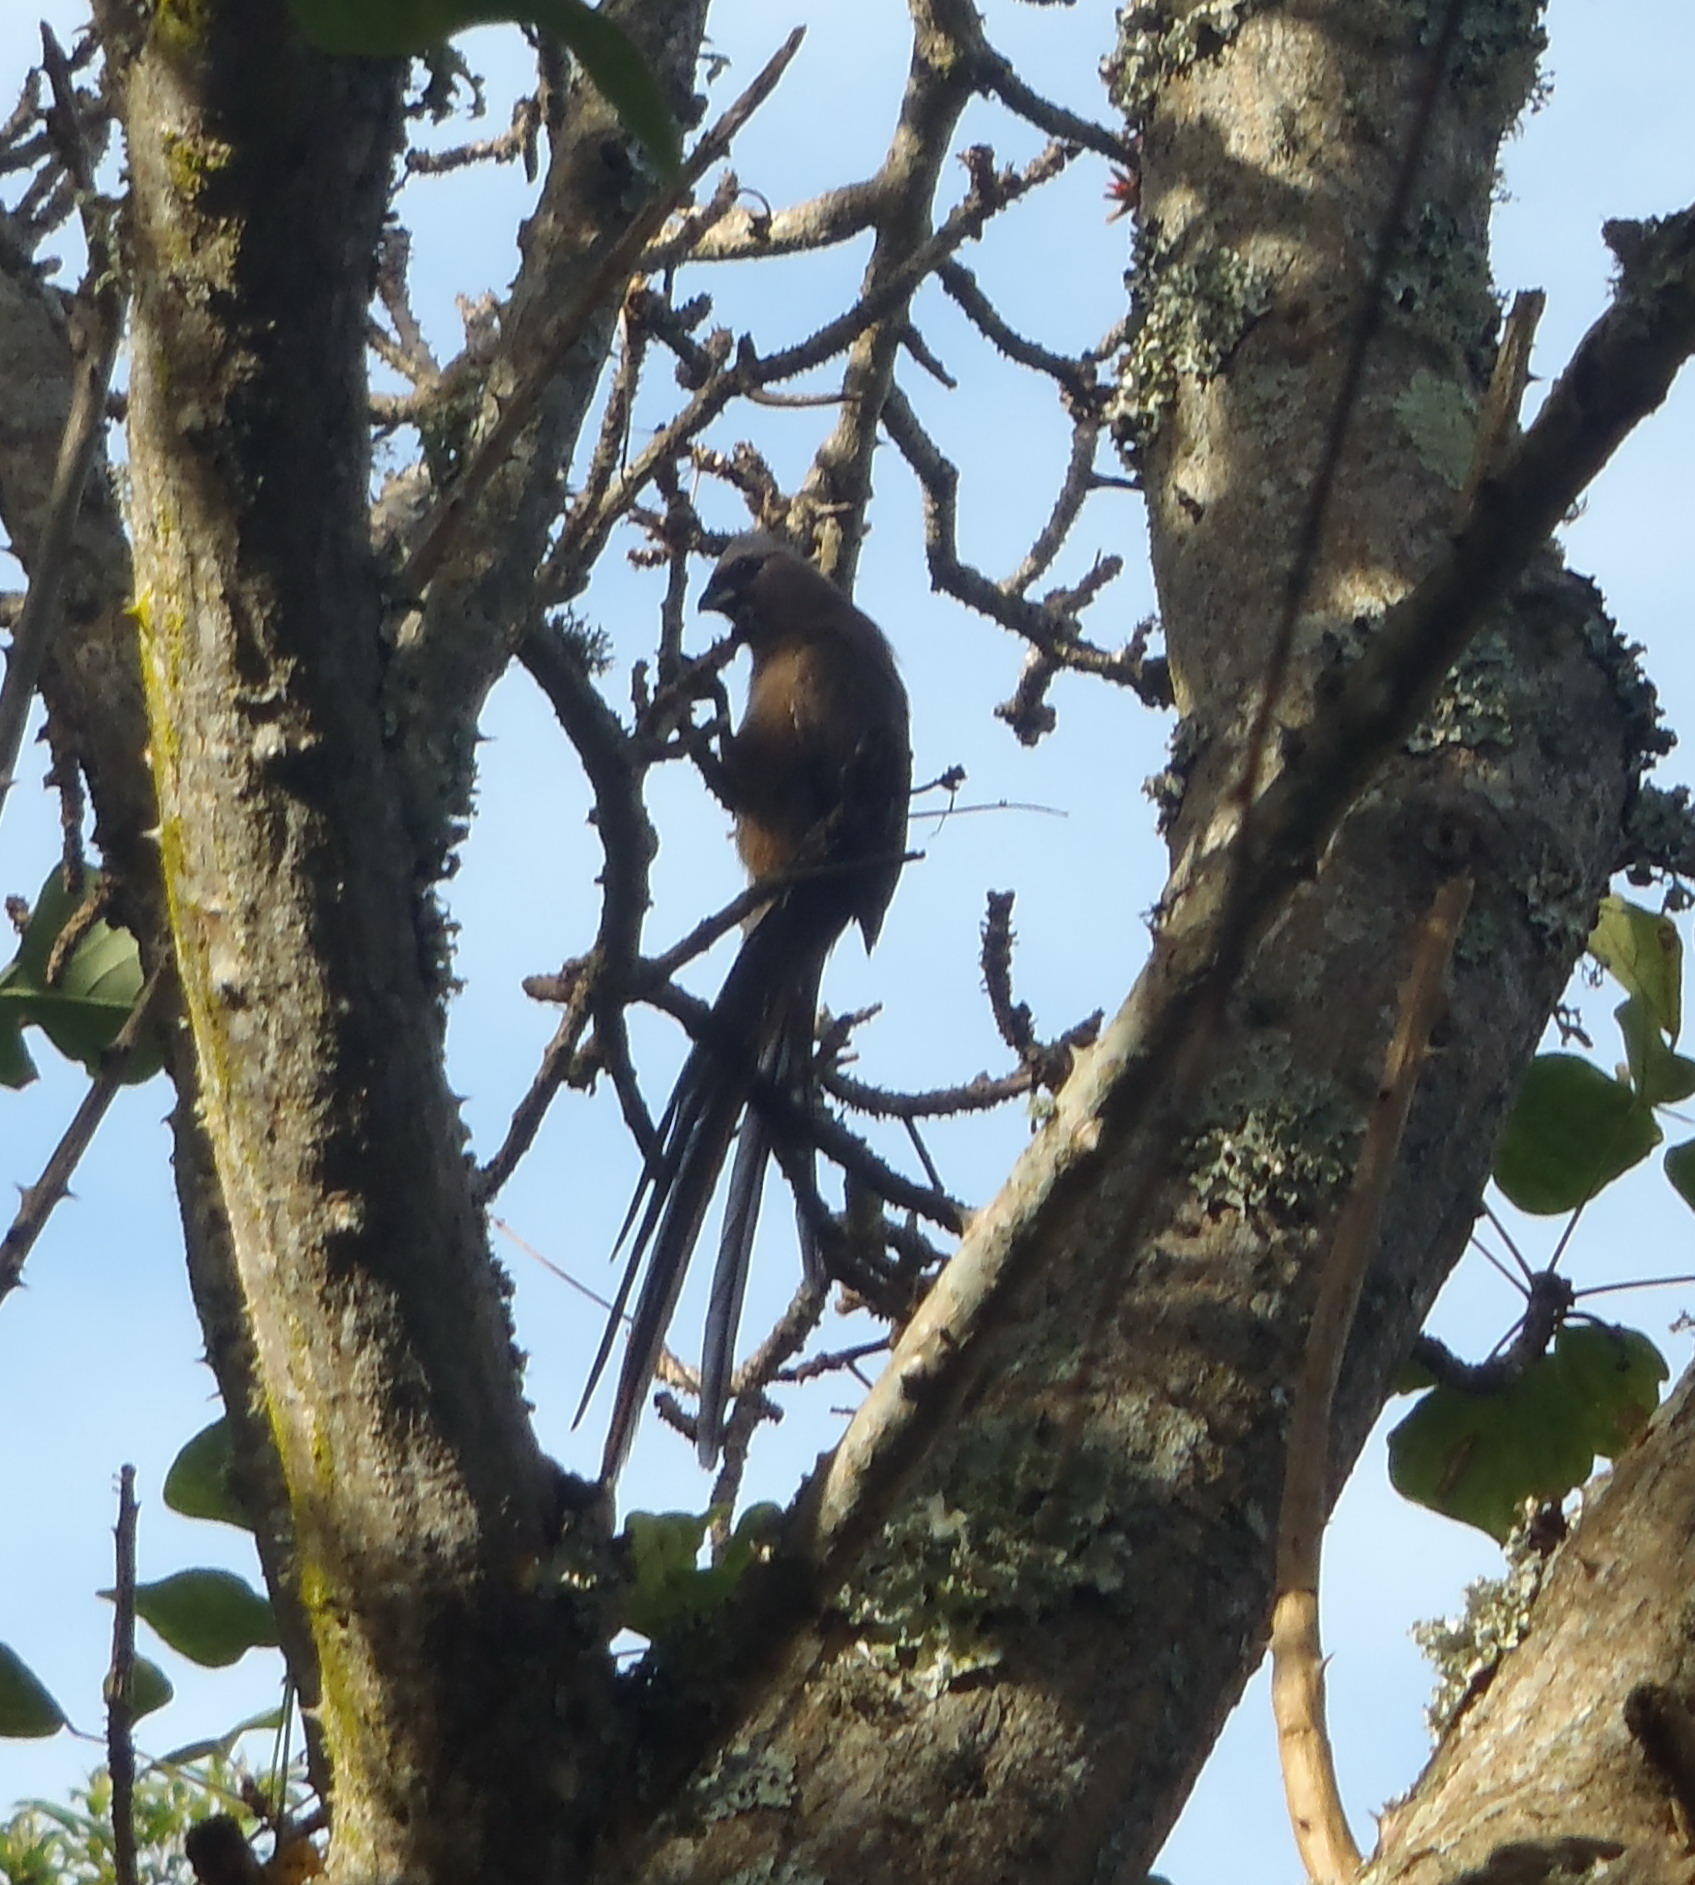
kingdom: Animalia
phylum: Chordata
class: Aves
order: Coliiformes
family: Coliidae
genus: Colius
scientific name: Colius striatus
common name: Speckled mousebird
